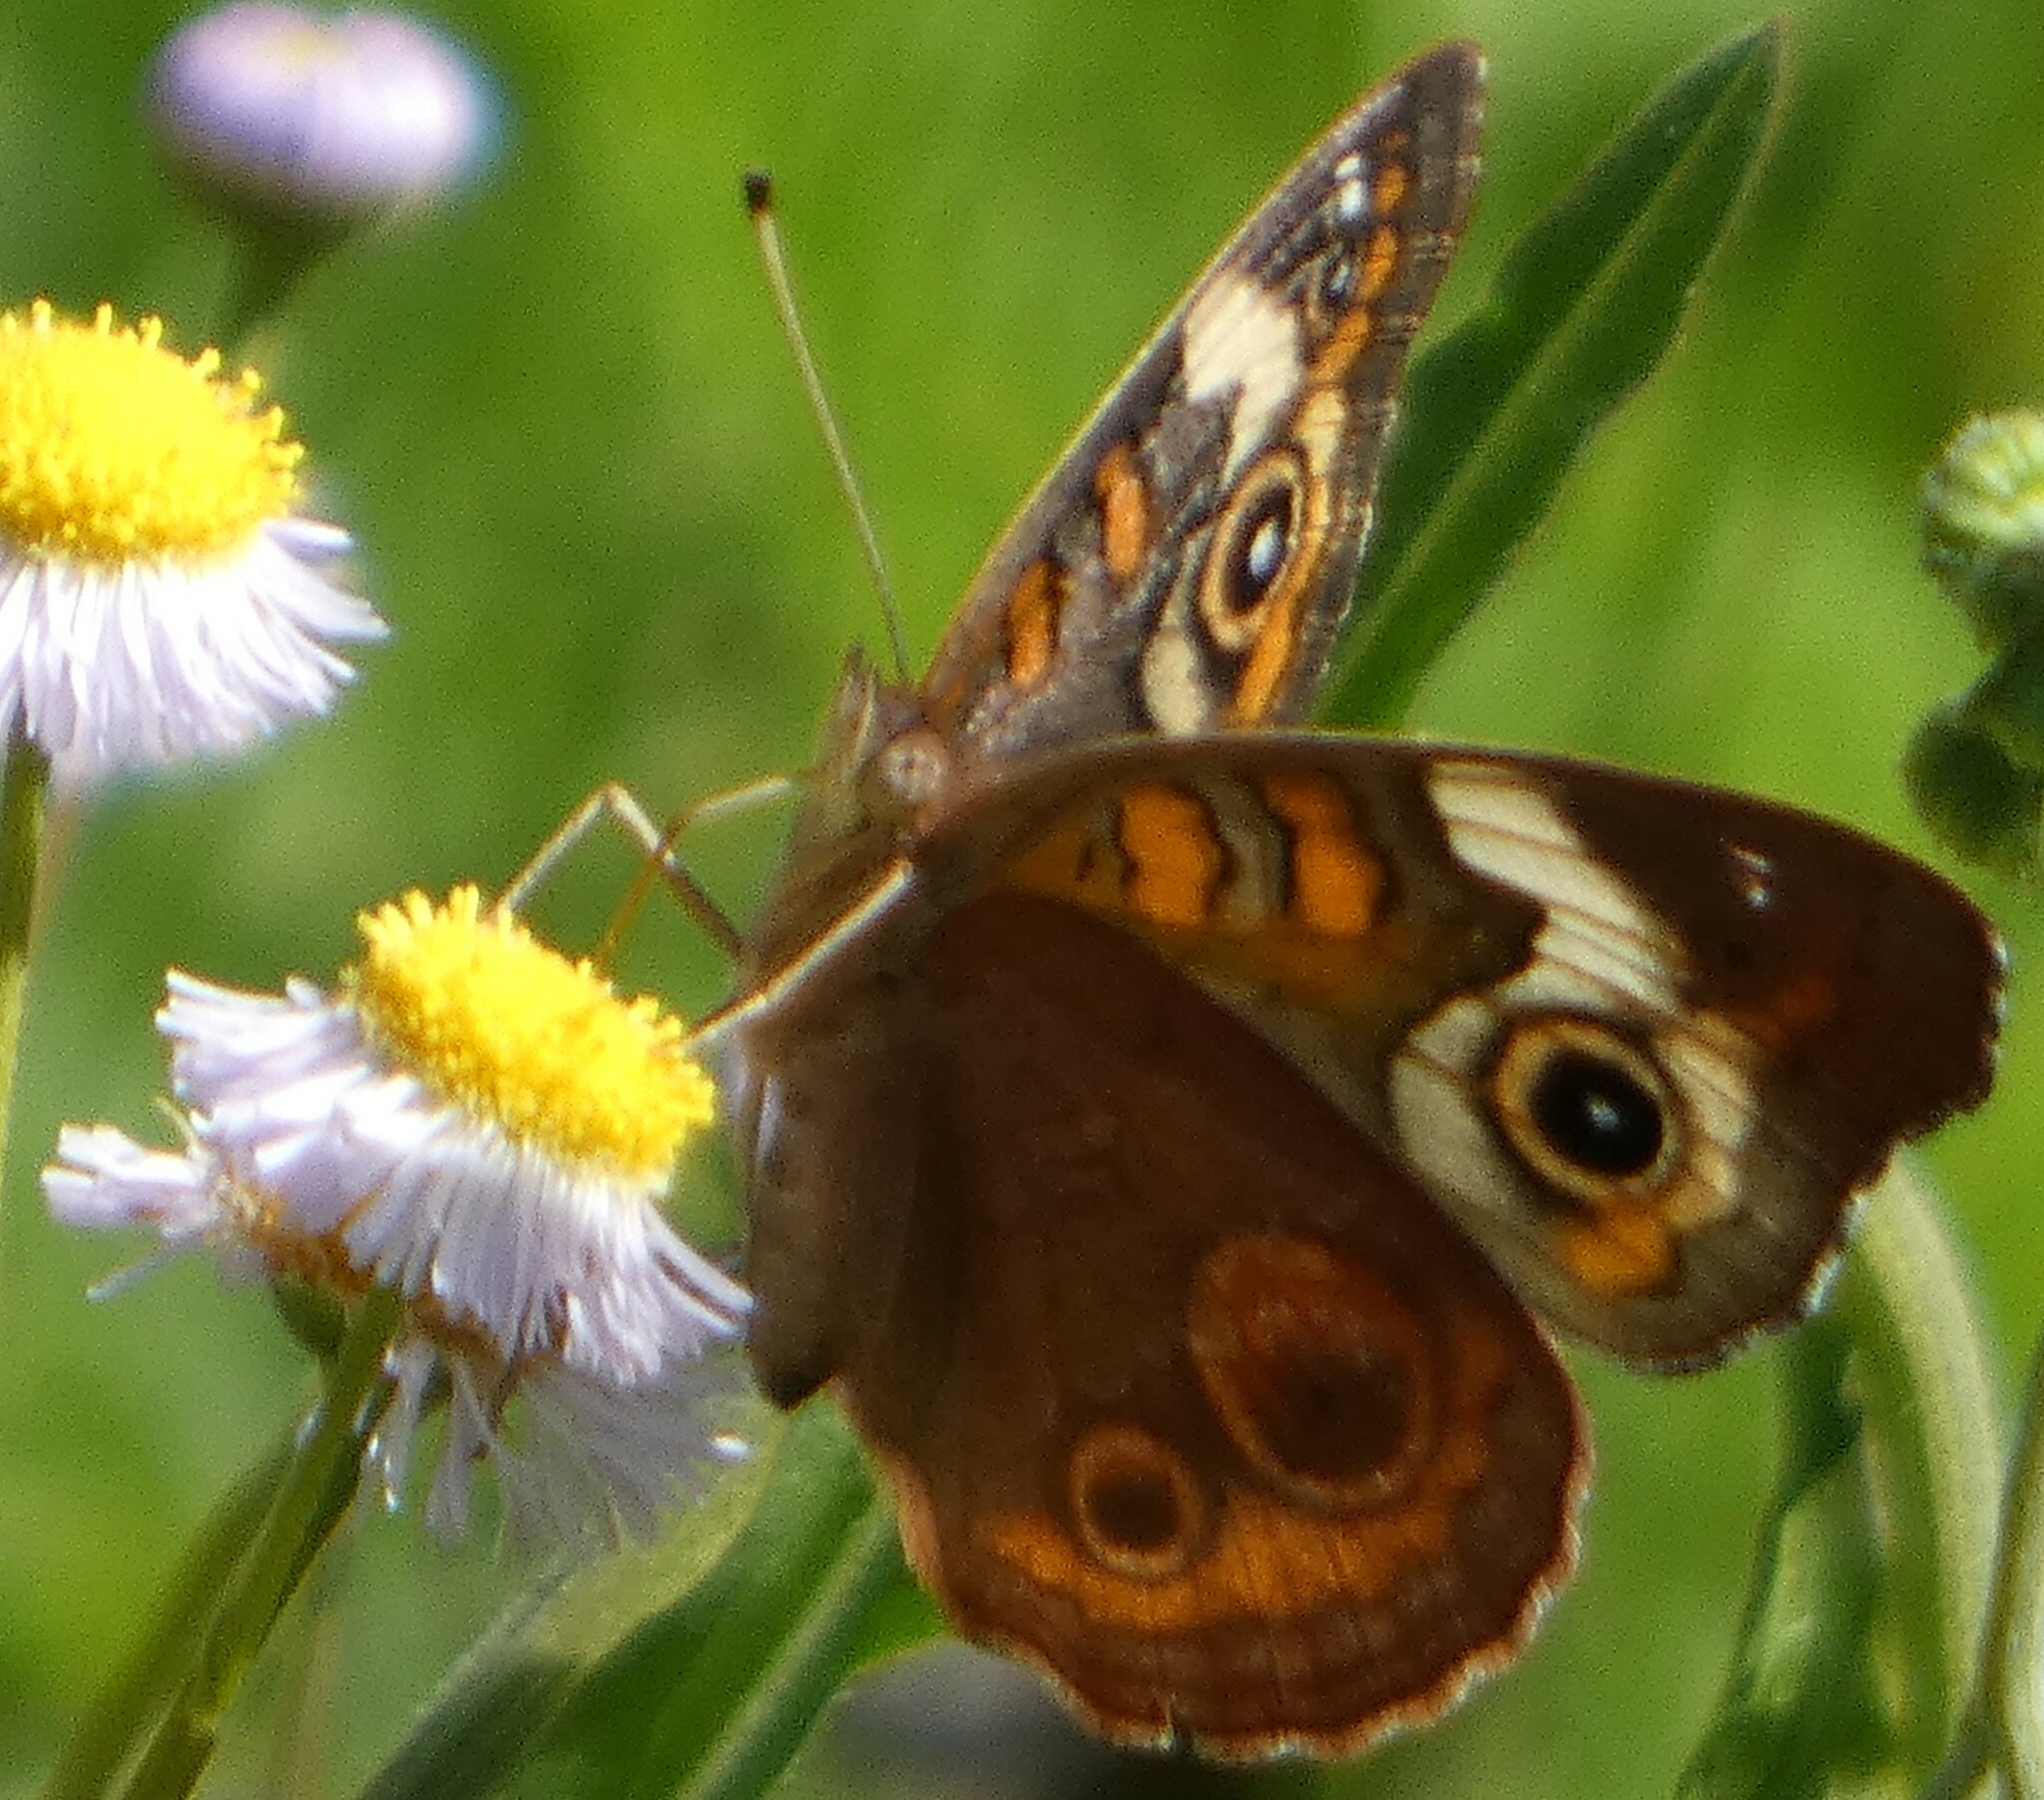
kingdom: Animalia
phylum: Arthropoda
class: Insecta
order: Lepidoptera
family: Nymphalidae
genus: Junonia
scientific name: Junonia coenia
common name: Common buckeye
